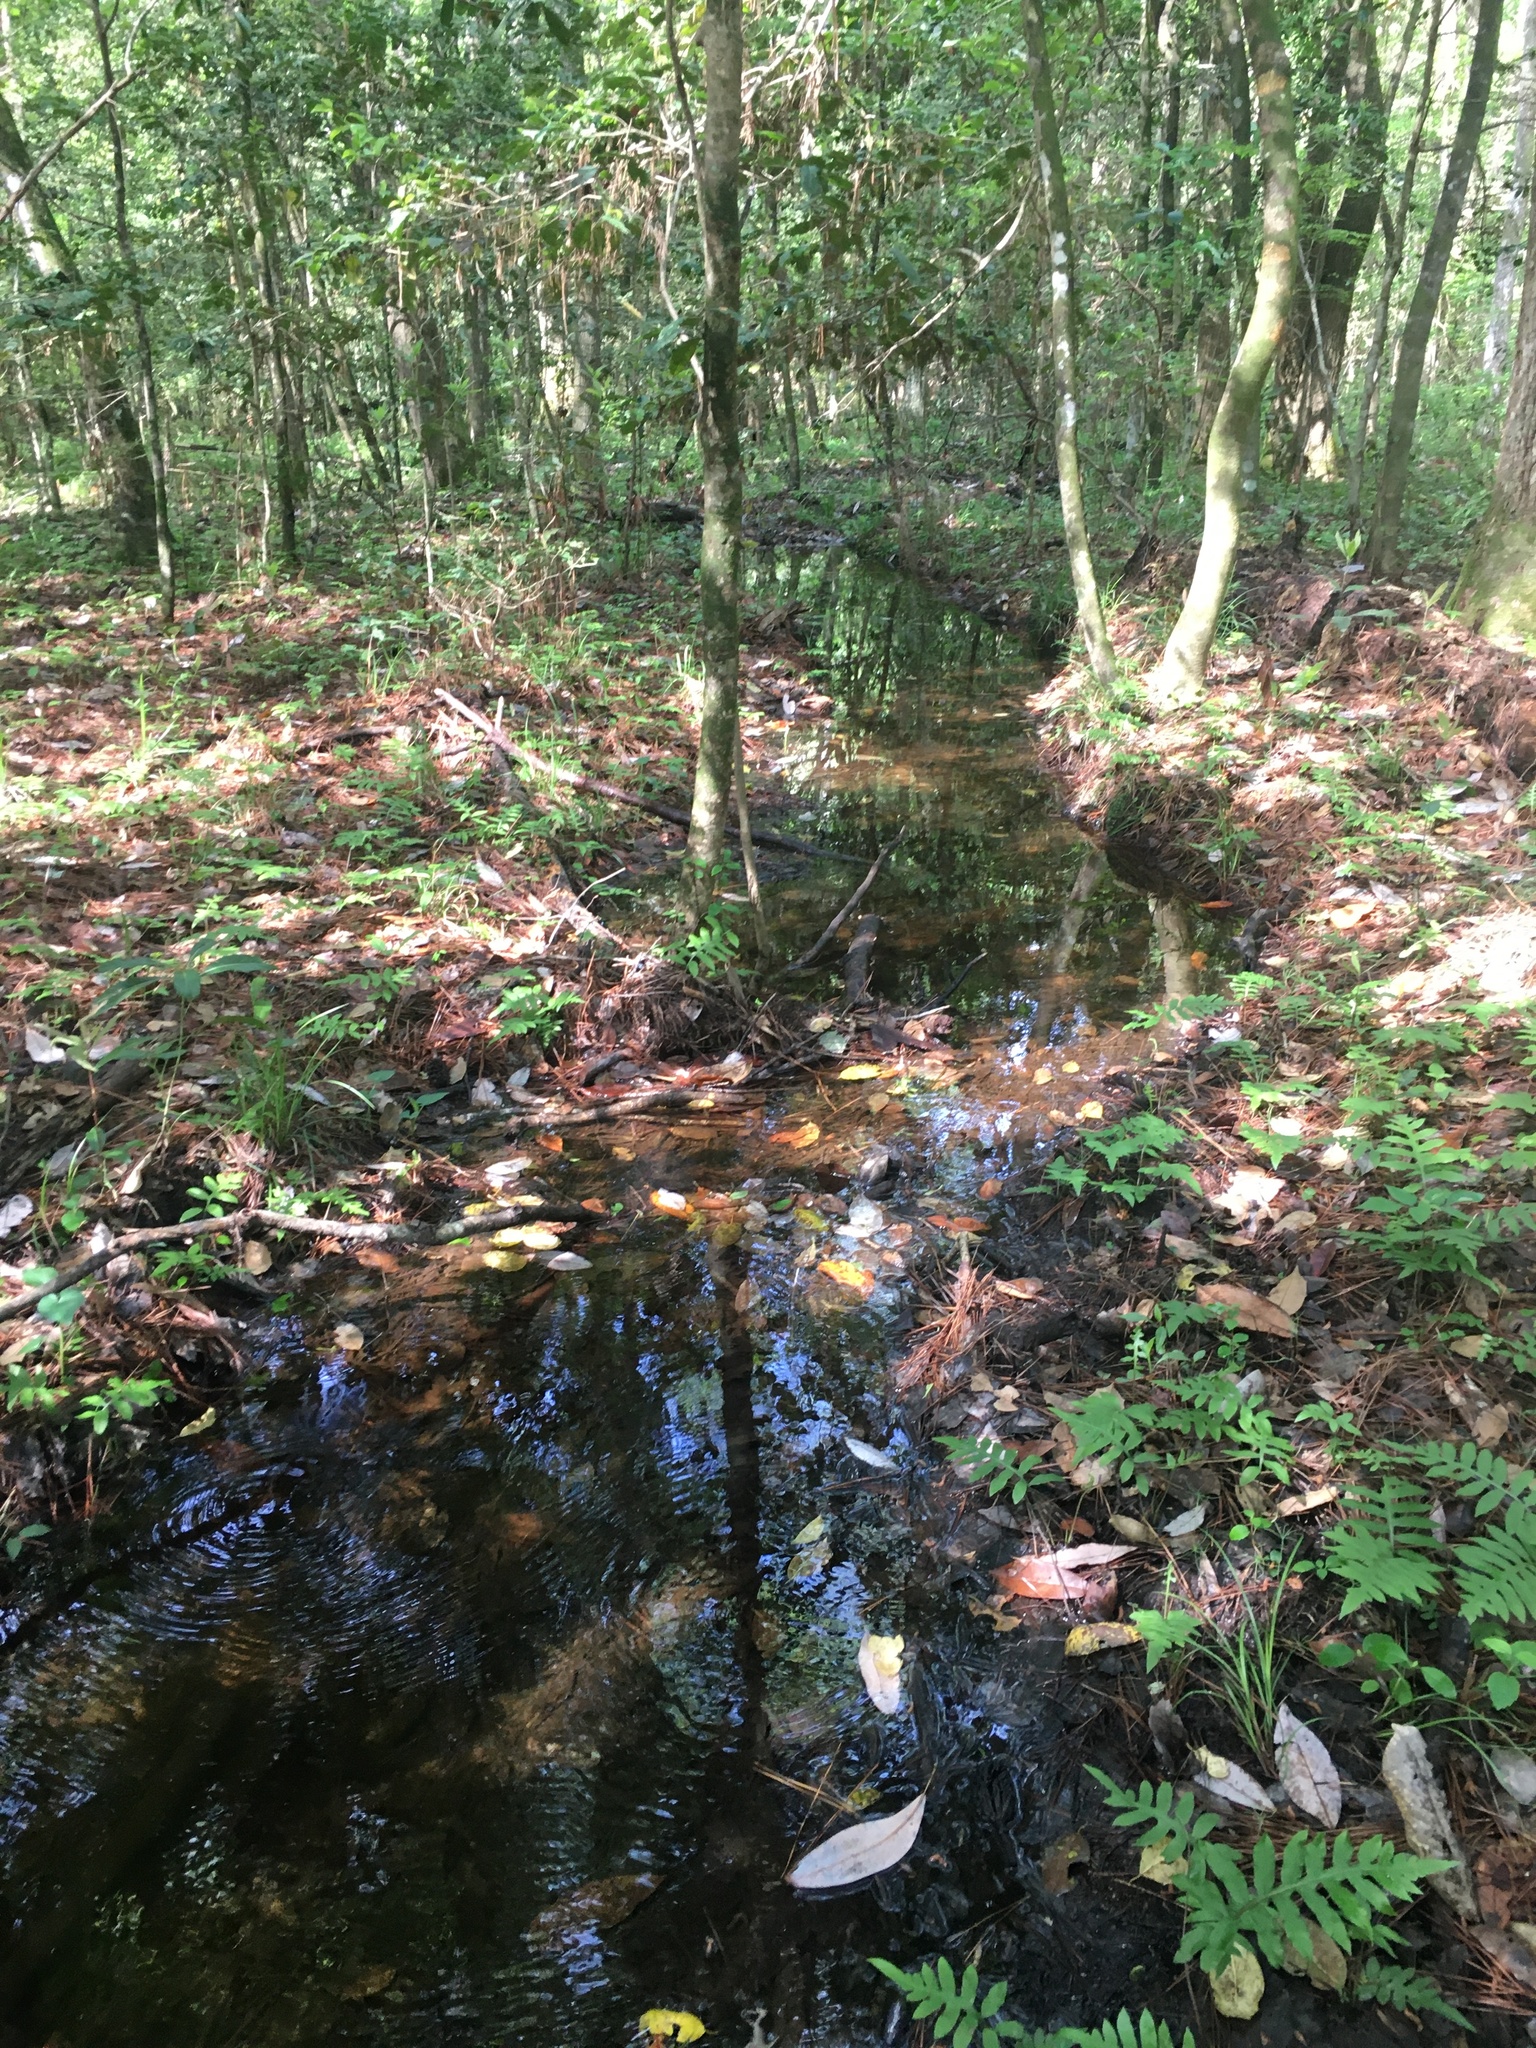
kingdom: Animalia
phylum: Arthropoda
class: Insecta
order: Odonata
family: Petaluridae
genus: Tachopteryx
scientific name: Tachopteryx thoreyi
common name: Gray petaltail
